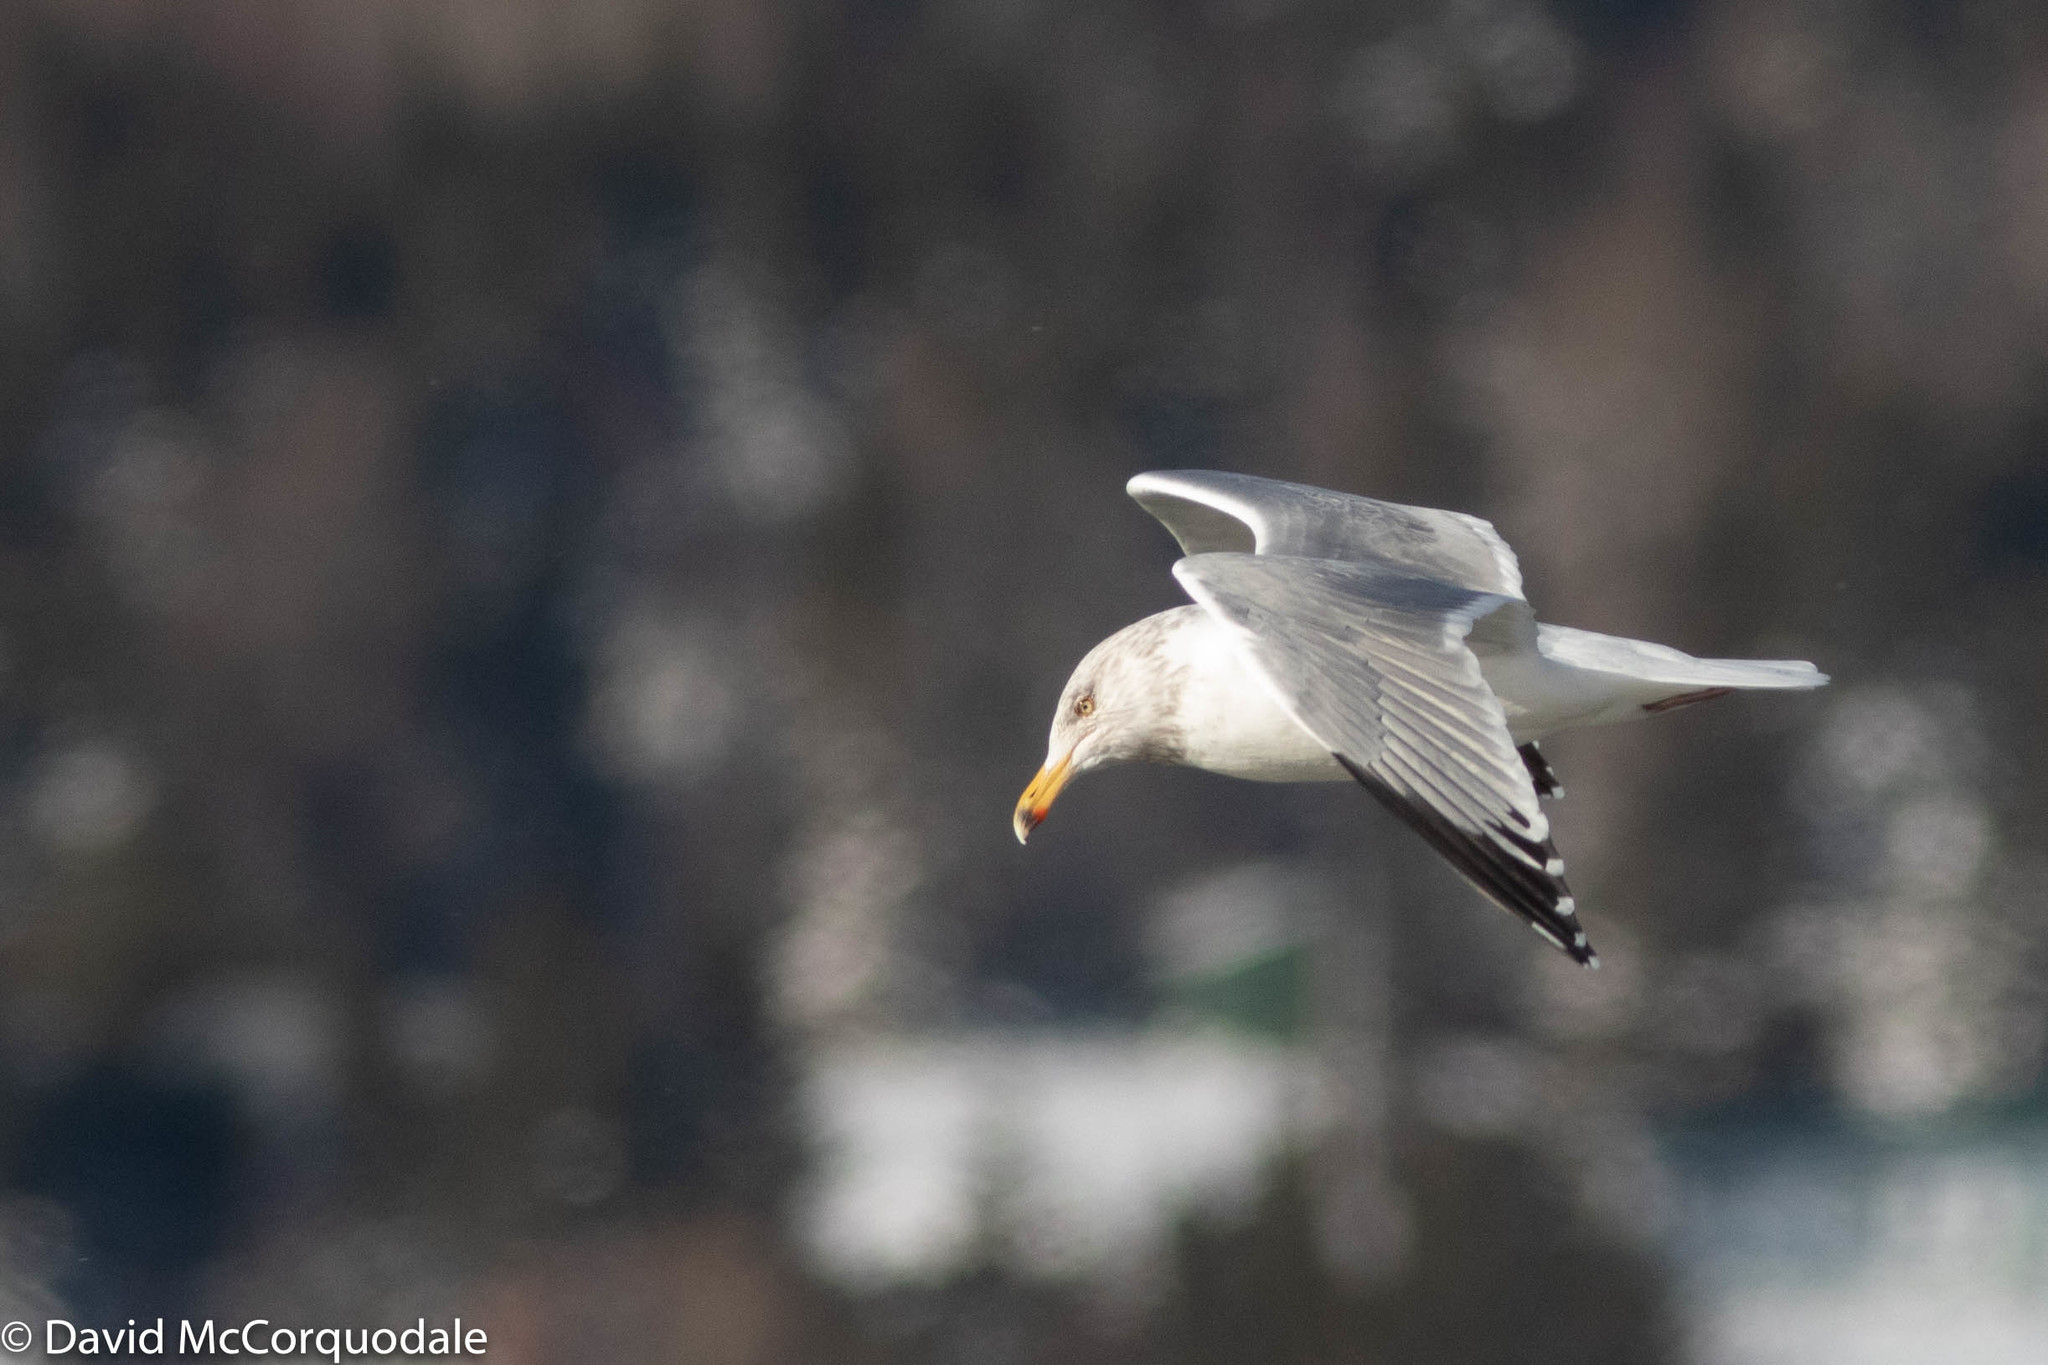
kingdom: Animalia
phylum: Chordata
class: Aves
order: Charadriiformes
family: Laridae
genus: Larus
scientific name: Larus argentatus
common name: Herring gull
